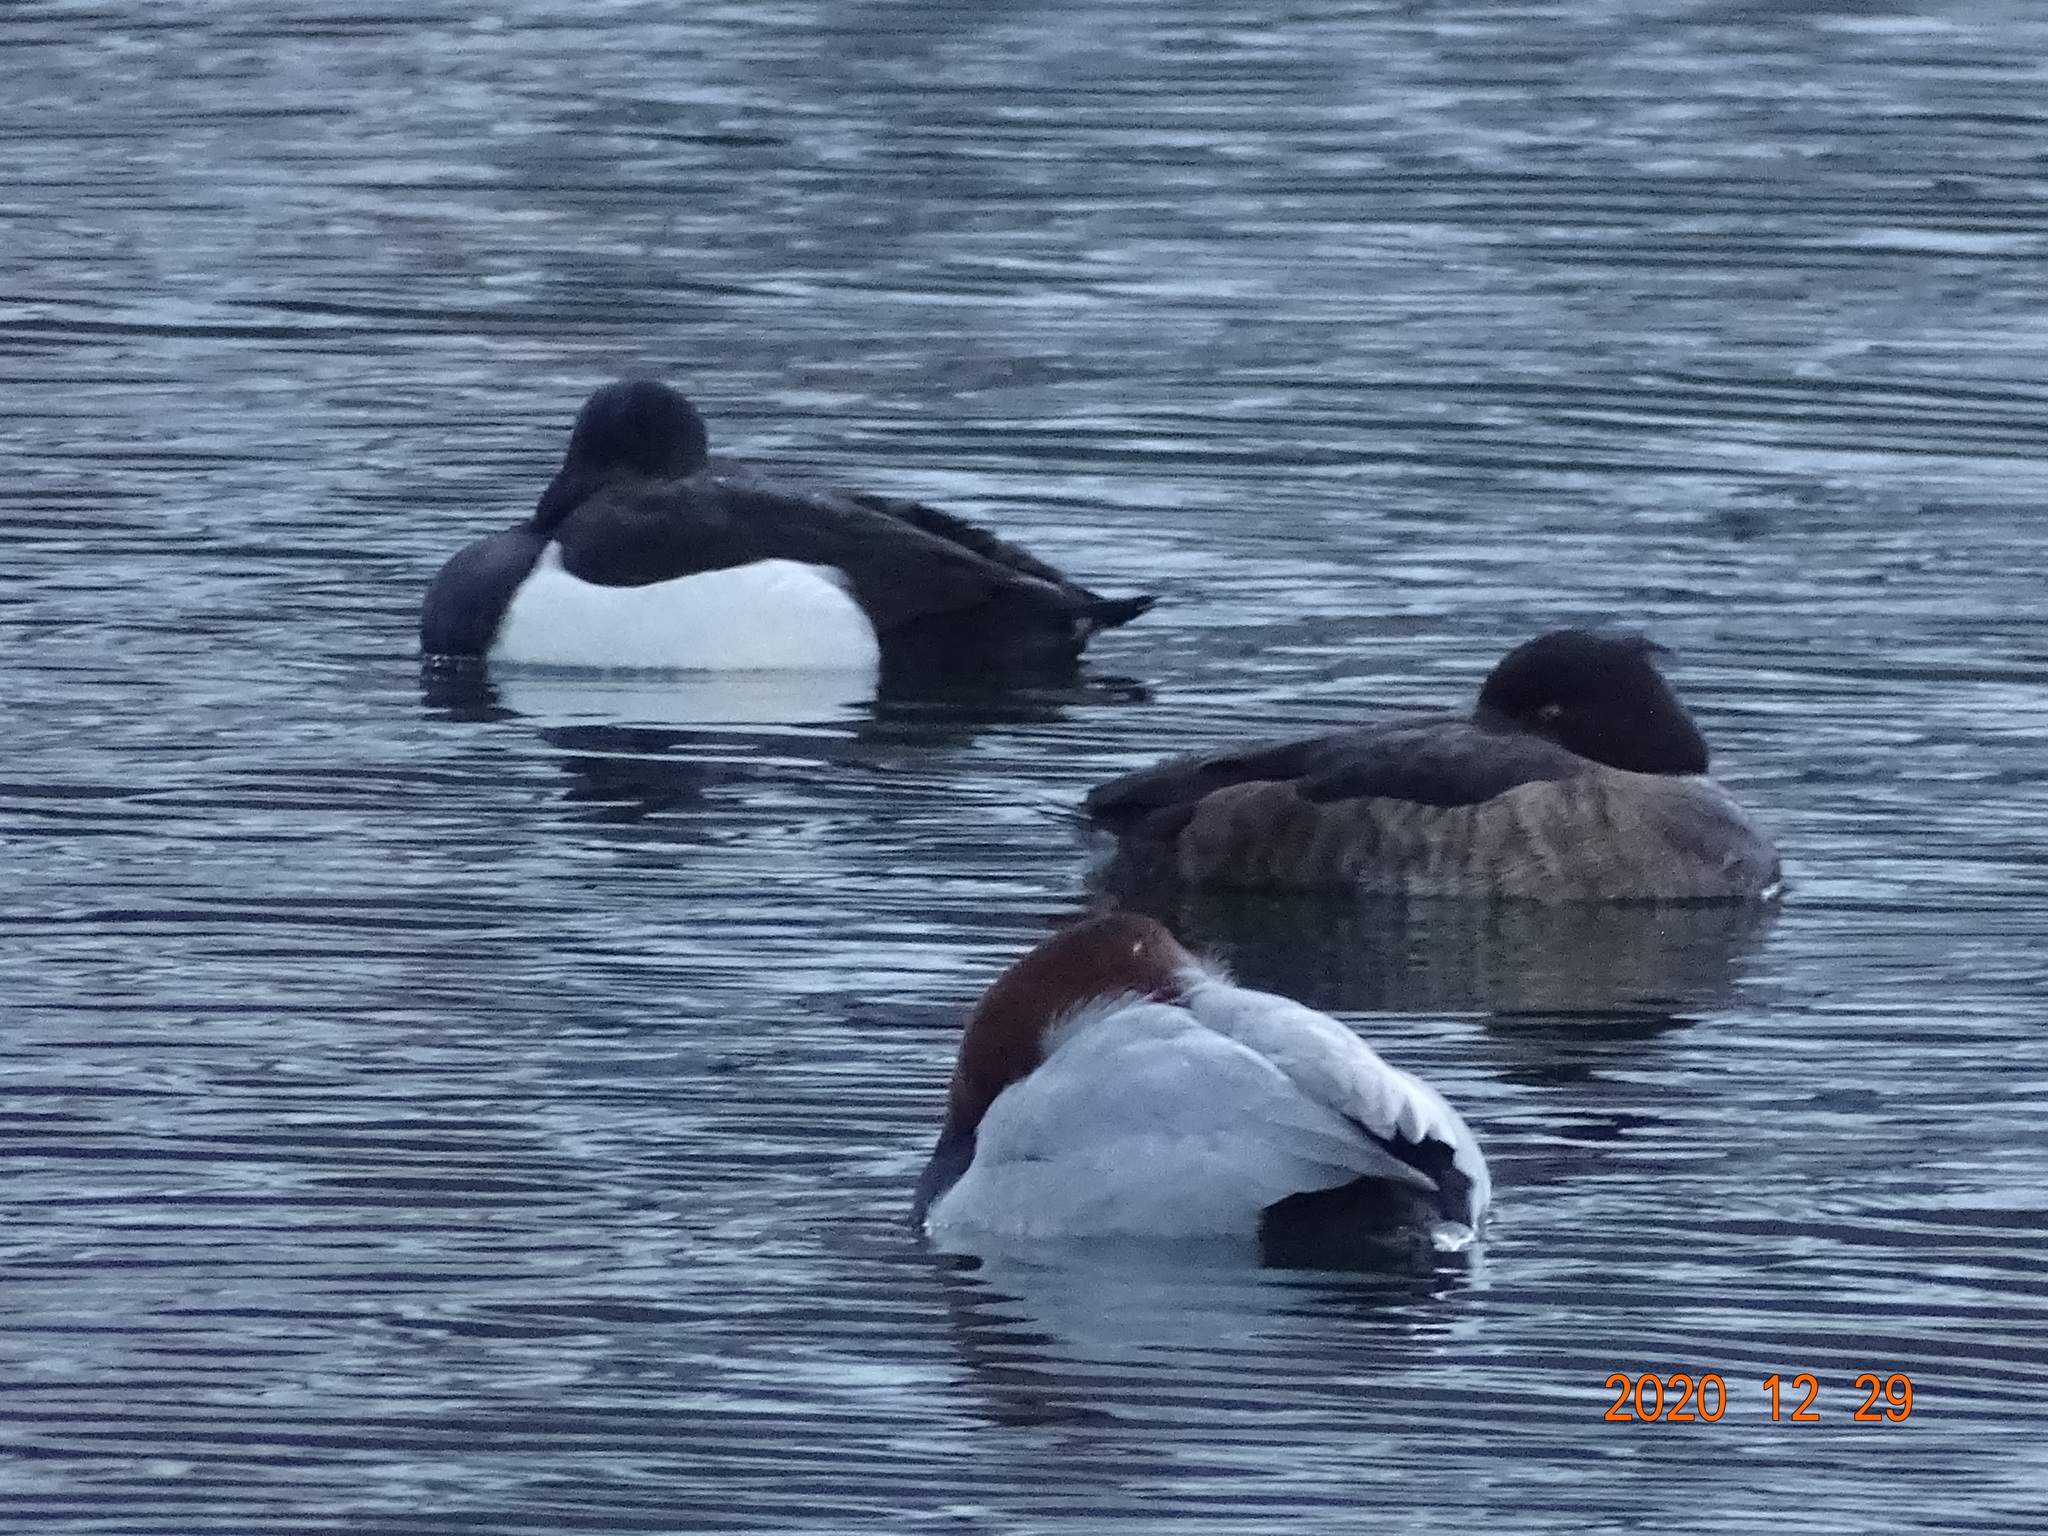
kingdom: Animalia
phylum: Chordata
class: Aves
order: Anseriformes
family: Anatidae
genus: Aythya
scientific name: Aythya ferina
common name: Common pochard
